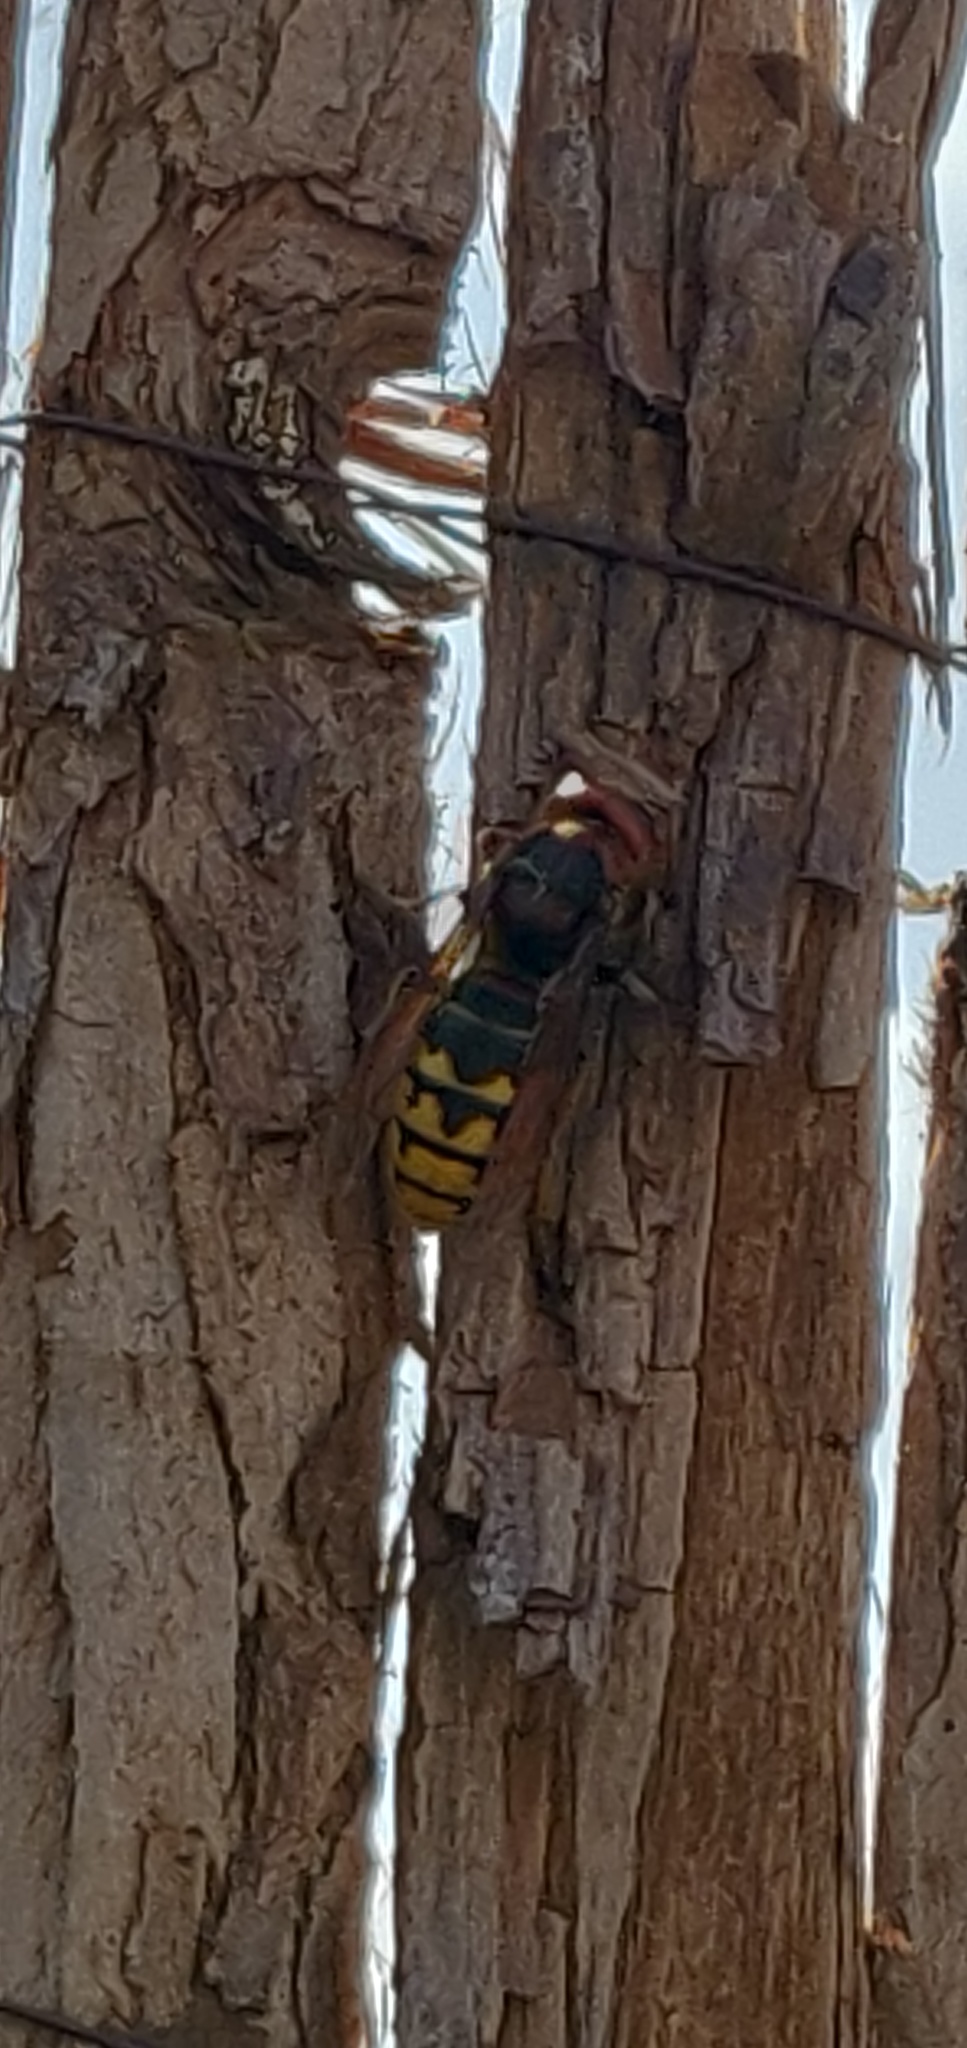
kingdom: Animalia
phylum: Arthropoda
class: Insecta
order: Hymenoptera
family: Vespidae
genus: Vespa
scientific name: Vespa crabro
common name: Hornet
